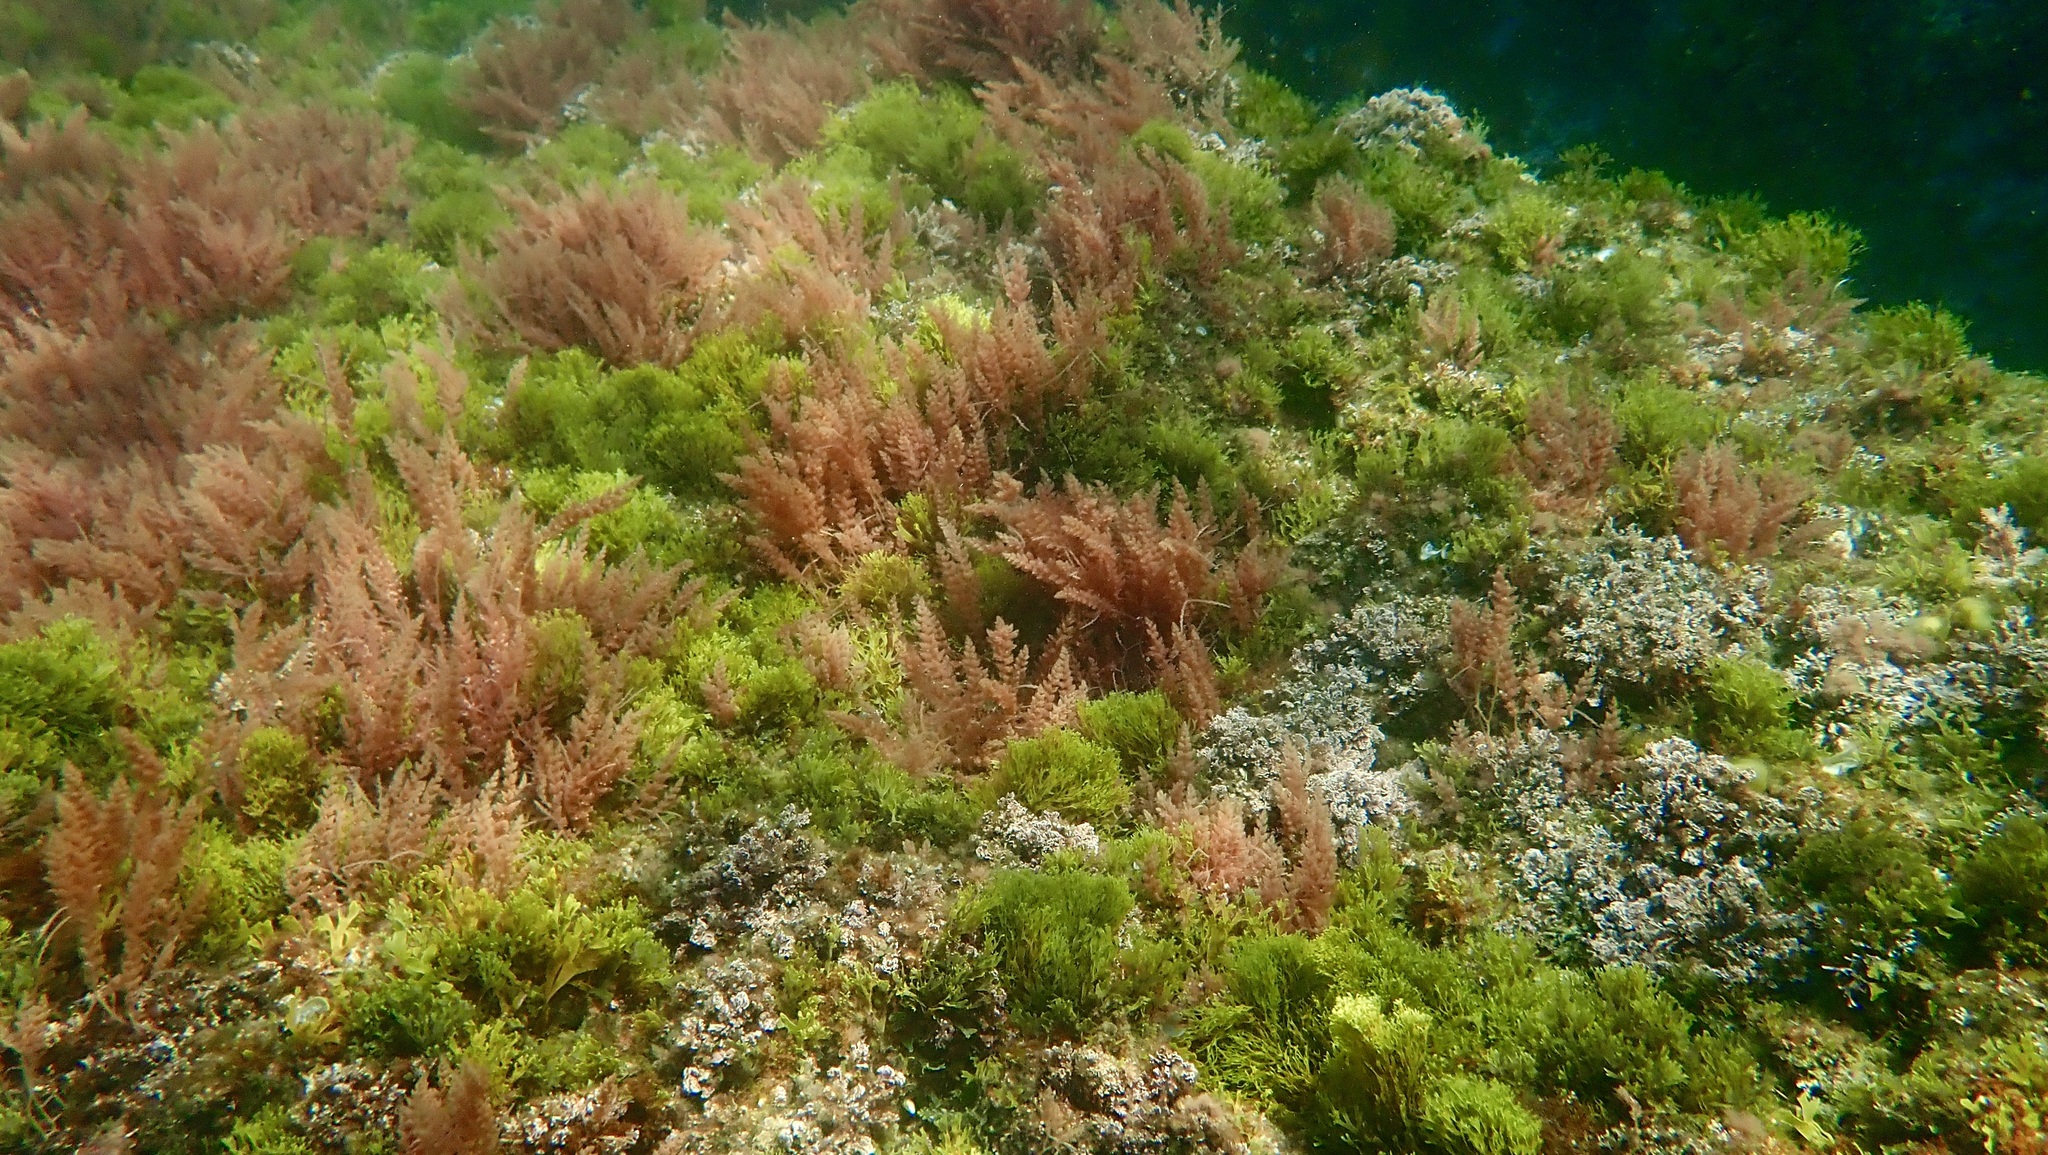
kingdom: Plantae
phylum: Rhodophyta
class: Florideophyceae
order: Bonnemaisoniales
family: Bonnemaisoniaceae
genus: Asparagopsis
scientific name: Asparagopsis armata
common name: Harpoon weed
